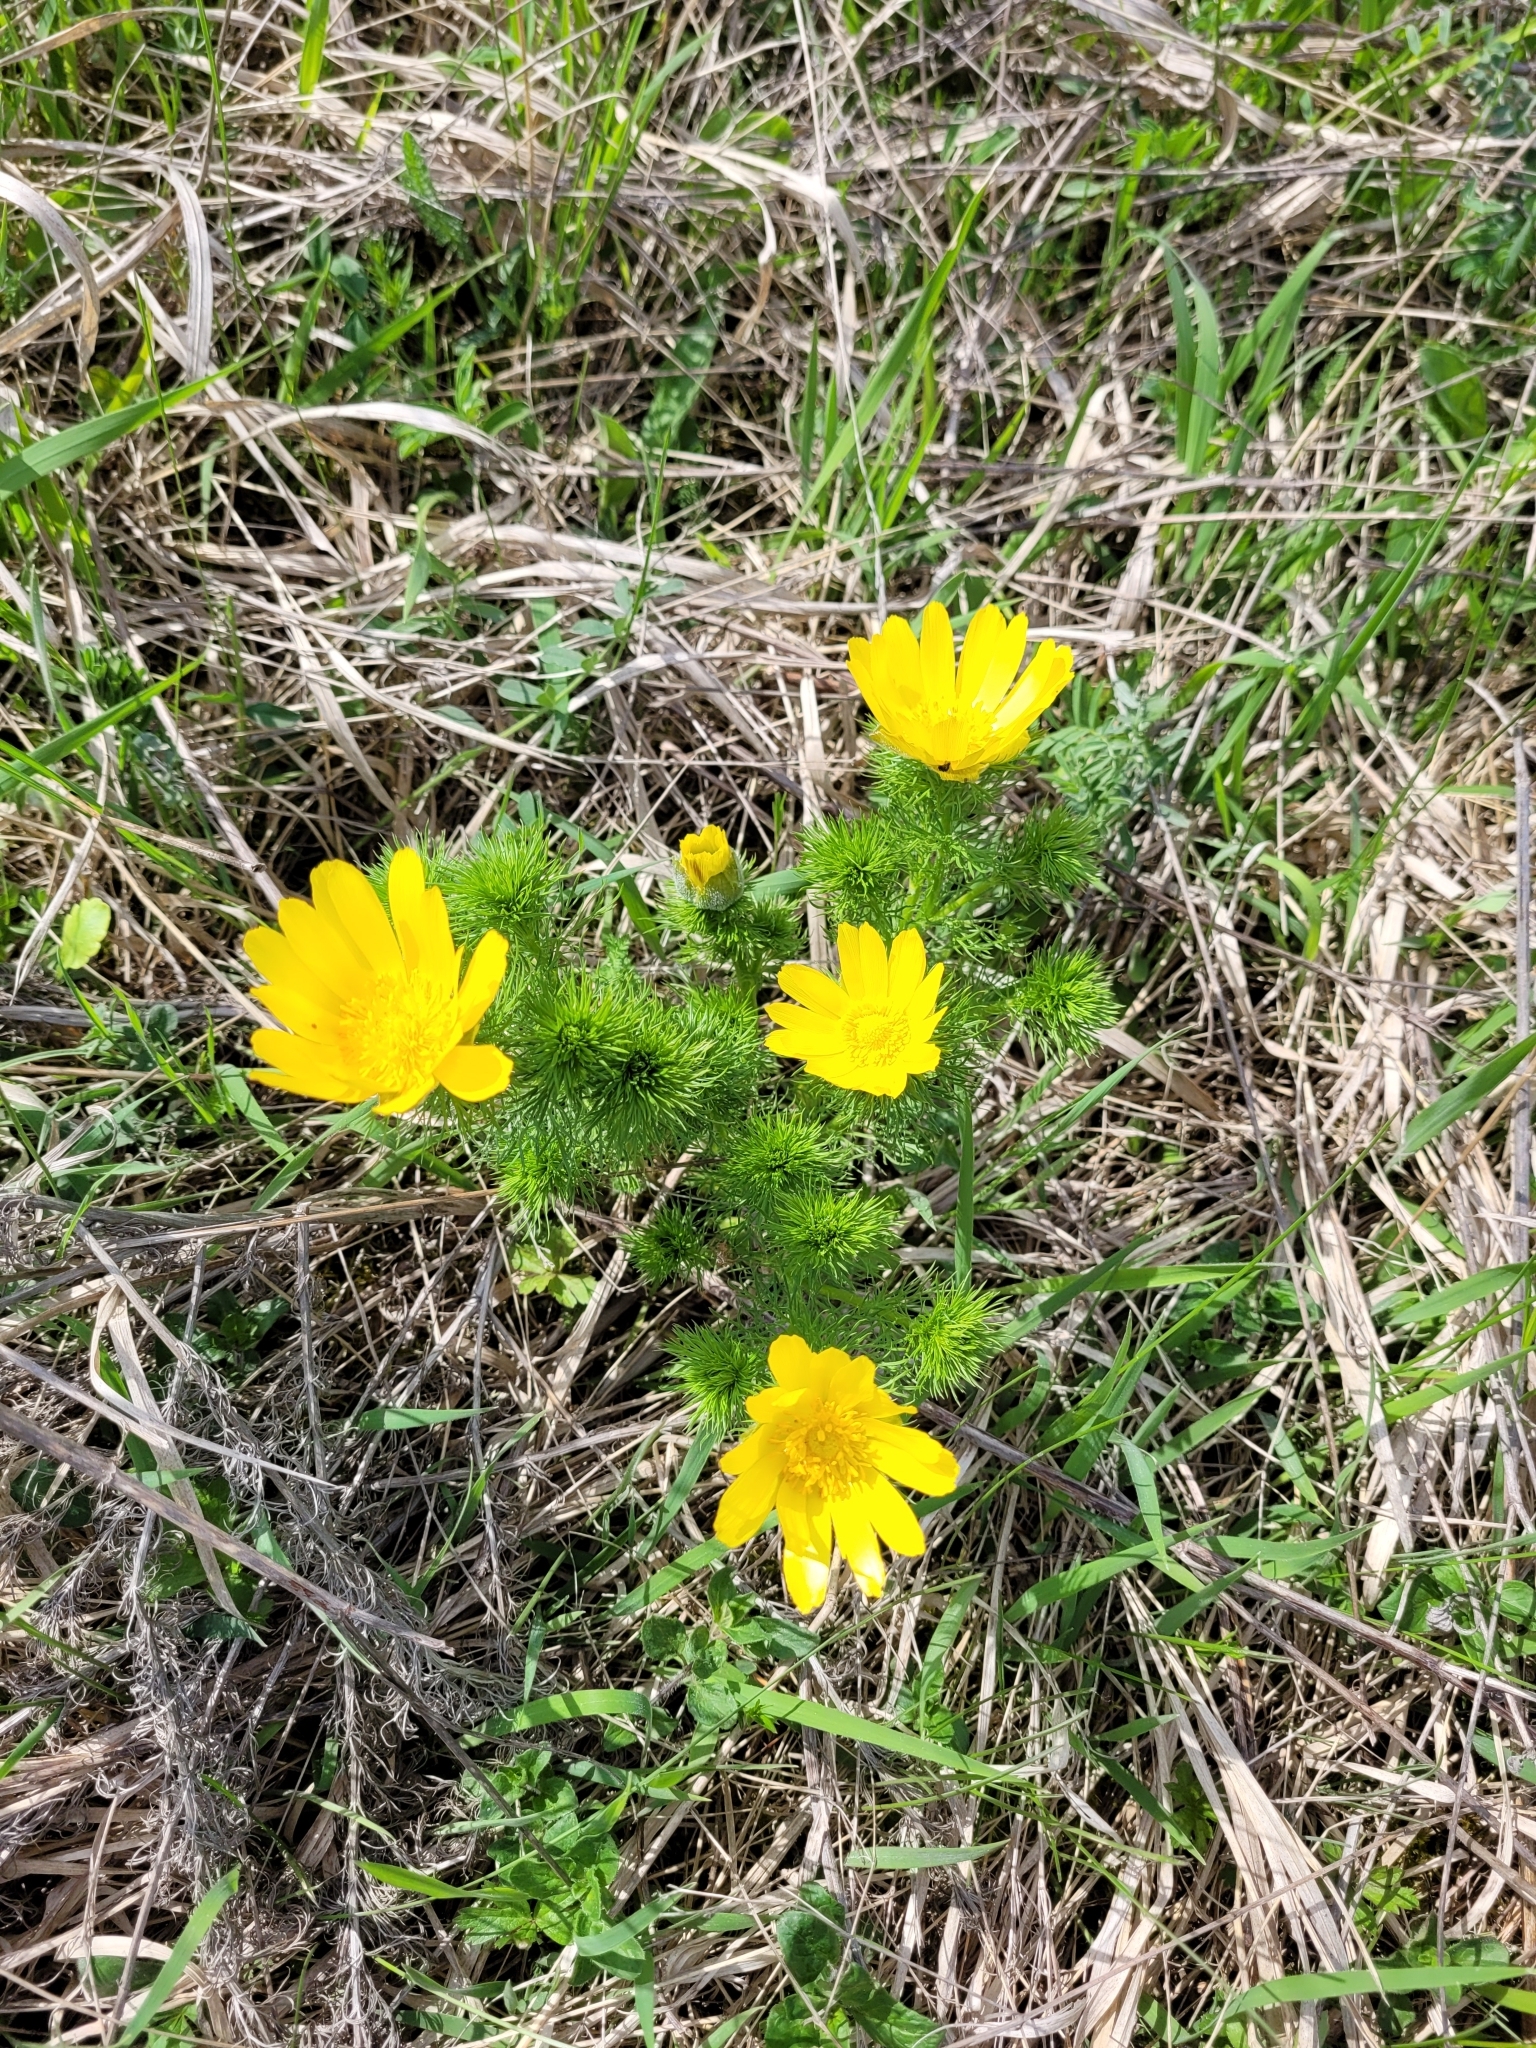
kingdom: Plantae
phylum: Tracheophyta
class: Magnoliopsida
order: Ranunculales
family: Ranunculaceae
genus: Adonis
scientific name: Adonis vernalis
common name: Yellow pheasants-eye
